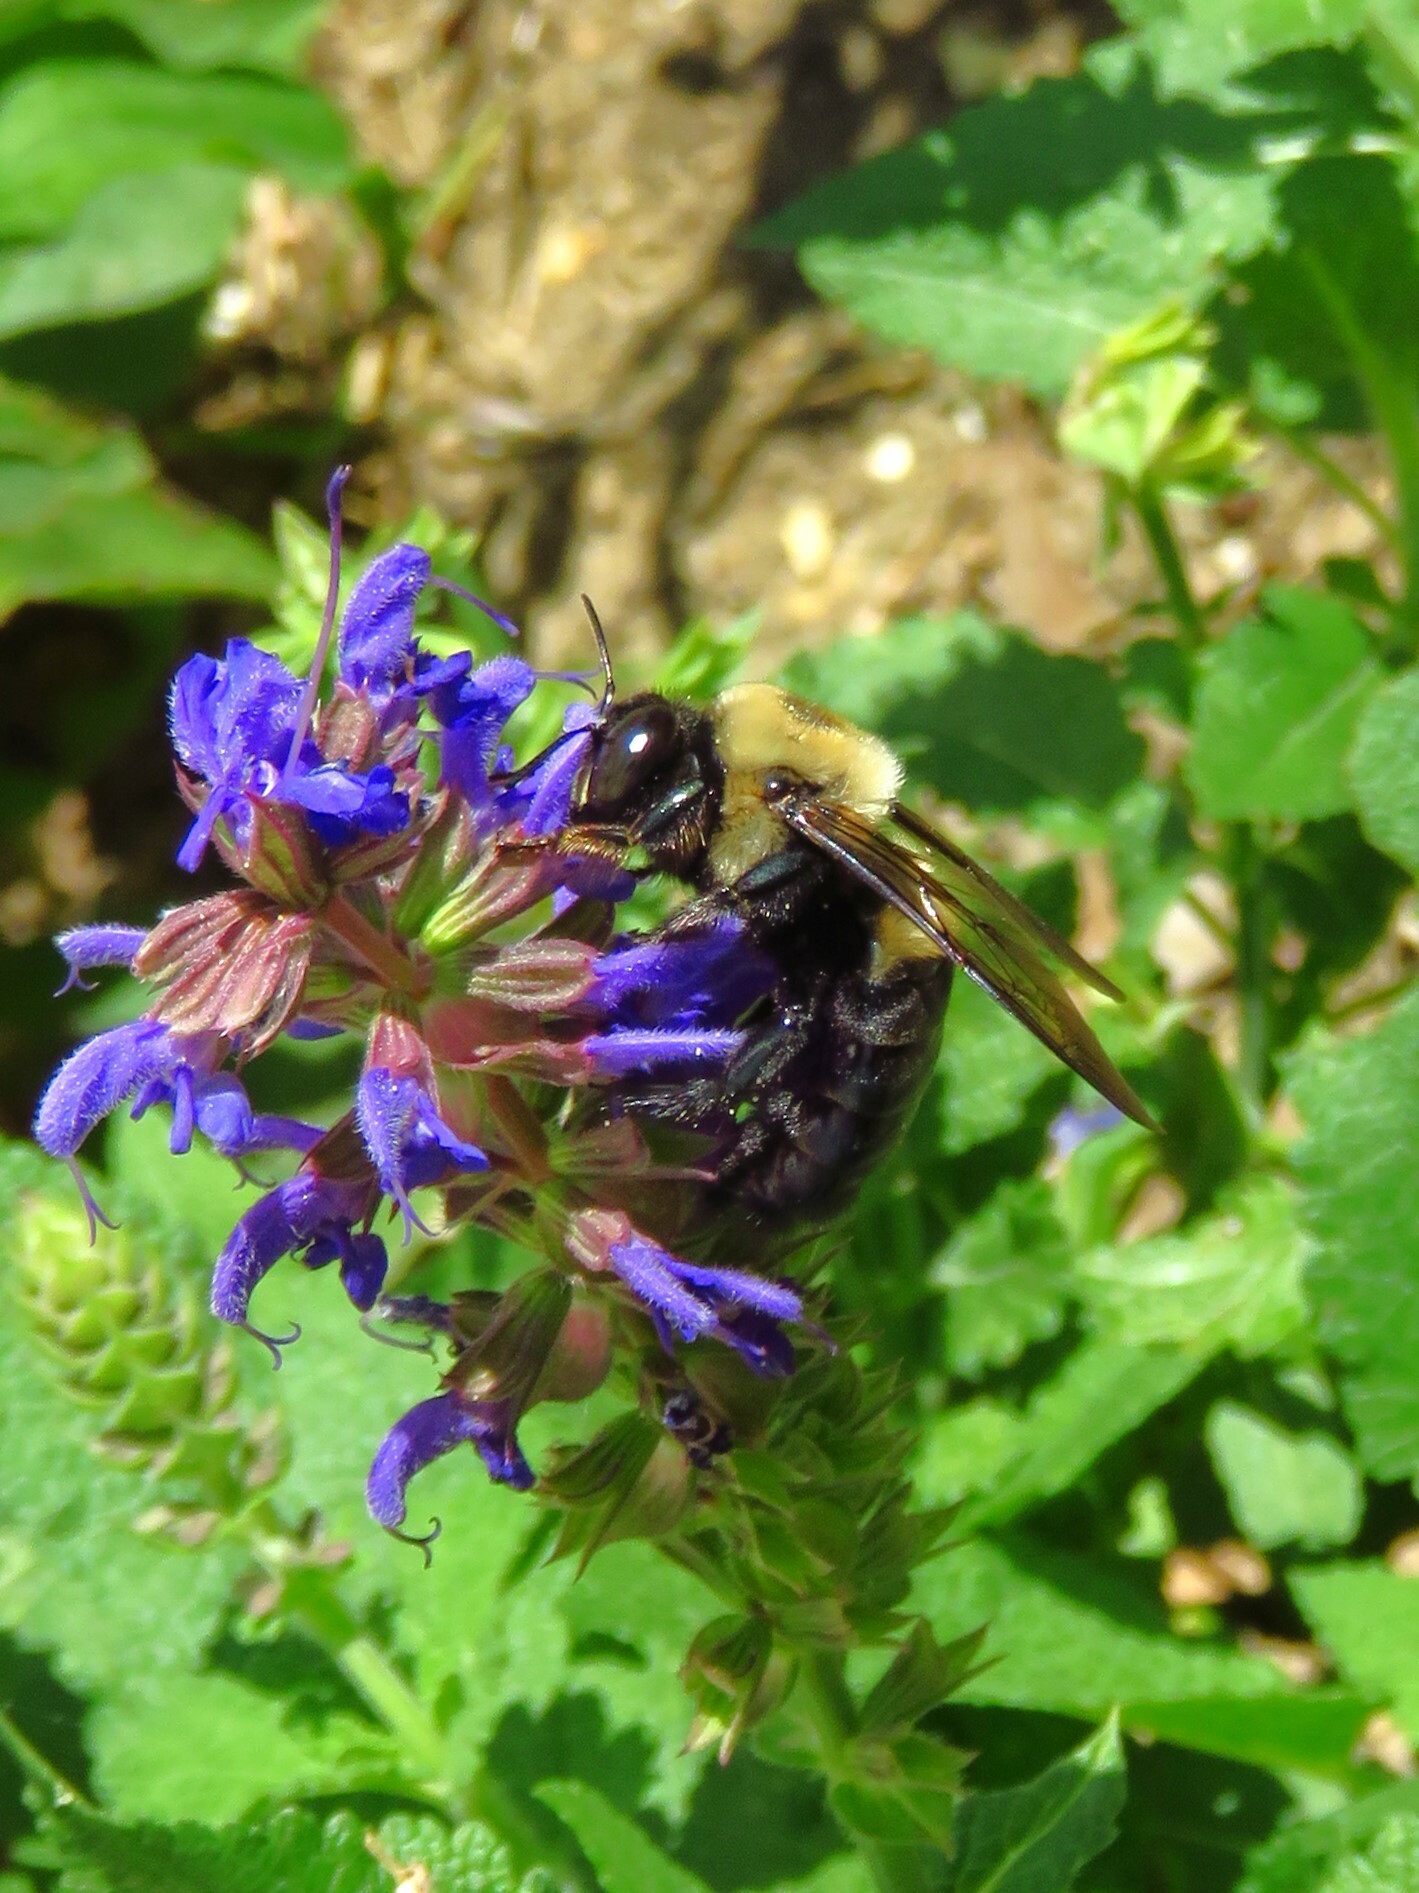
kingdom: Animalia
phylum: Arthropoda
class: Insecta
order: Hymenoptera
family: Apidae
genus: Xylocopa
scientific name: Xylocopa virginica
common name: Carpenter bee
